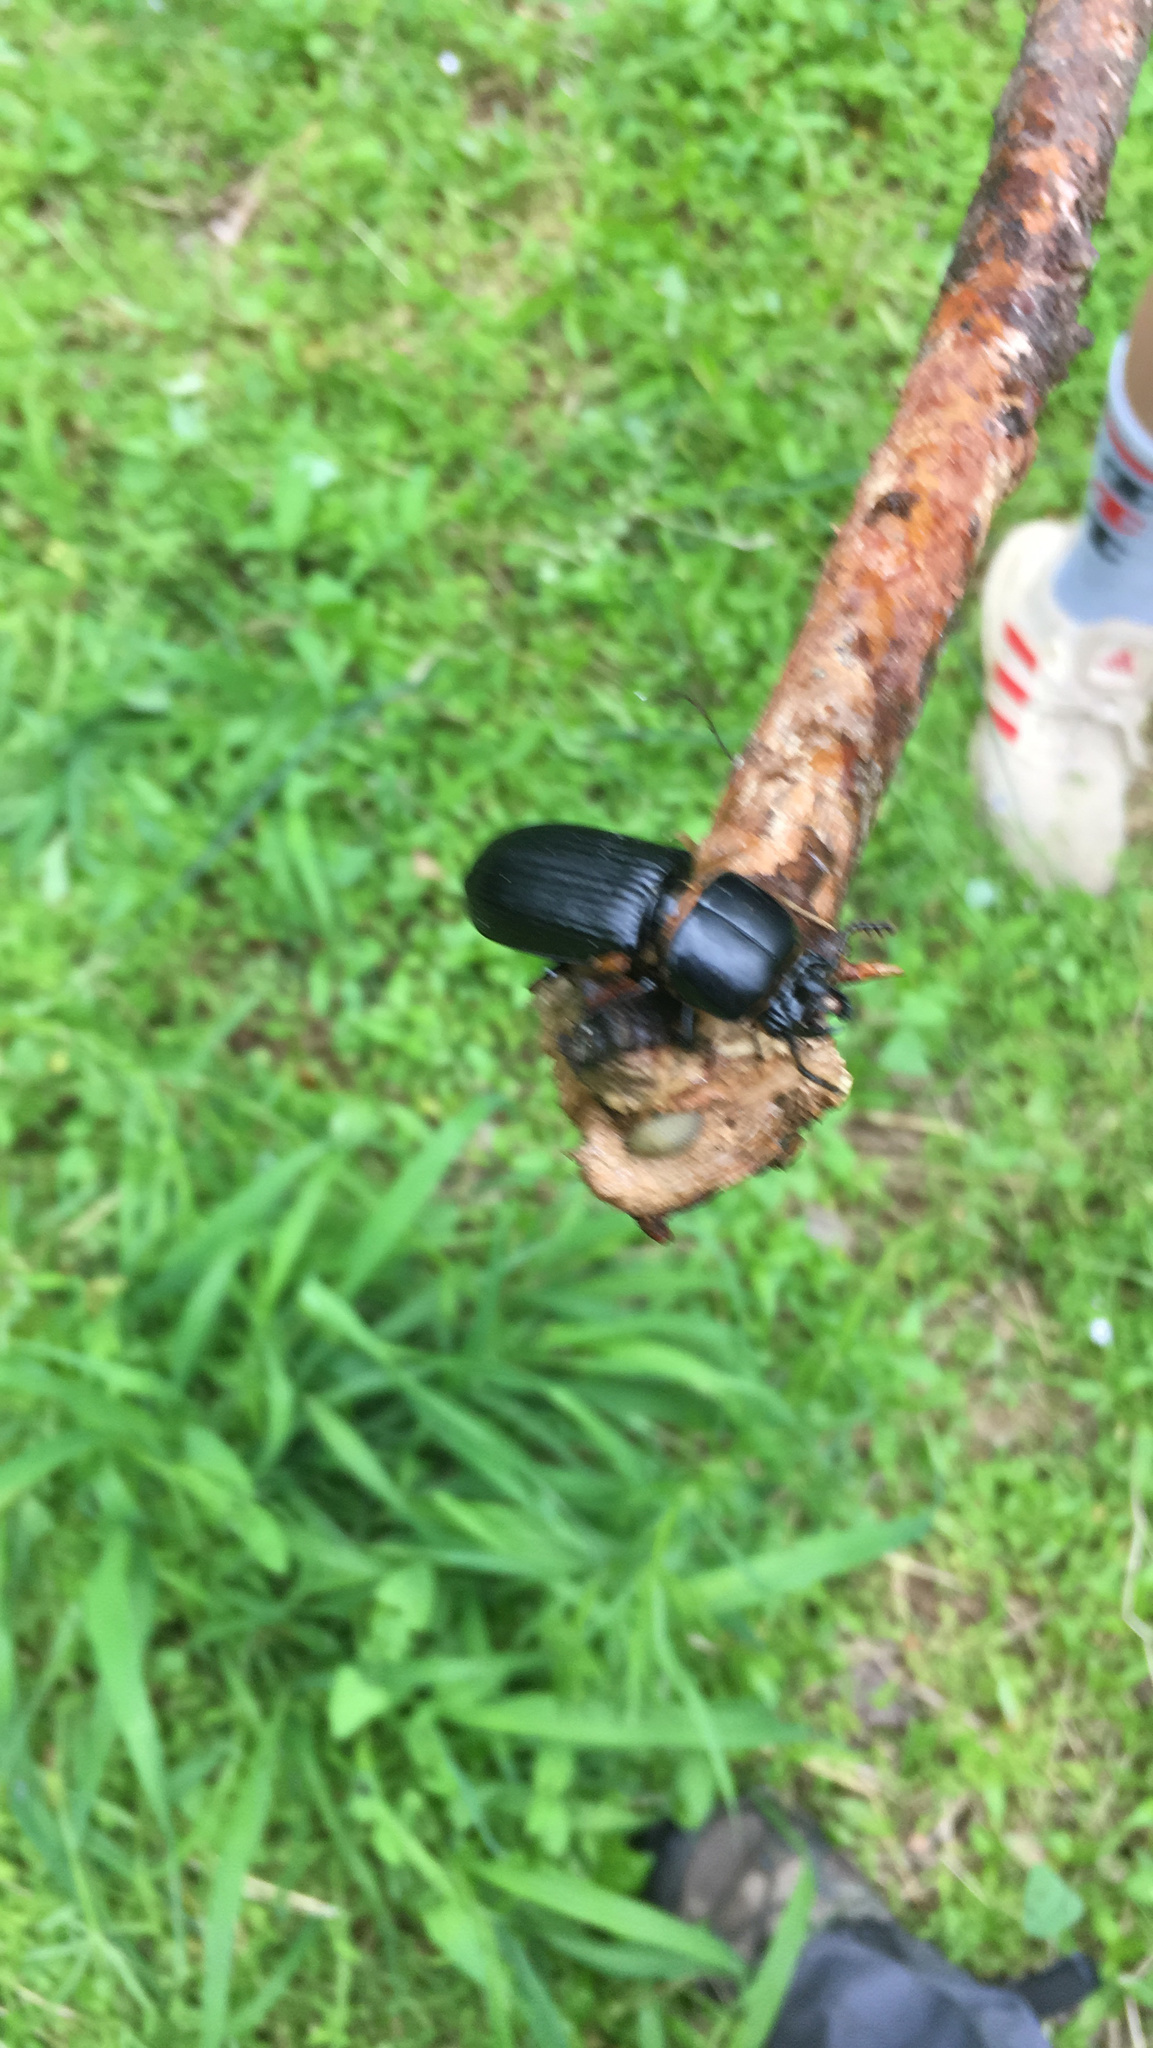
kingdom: Animalia
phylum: Arthropoda
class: Insecta
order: Coleoptera
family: Passalidae
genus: Odontotaenius
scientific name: Odontotaenius disjunctus
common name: Patent leather beetle
